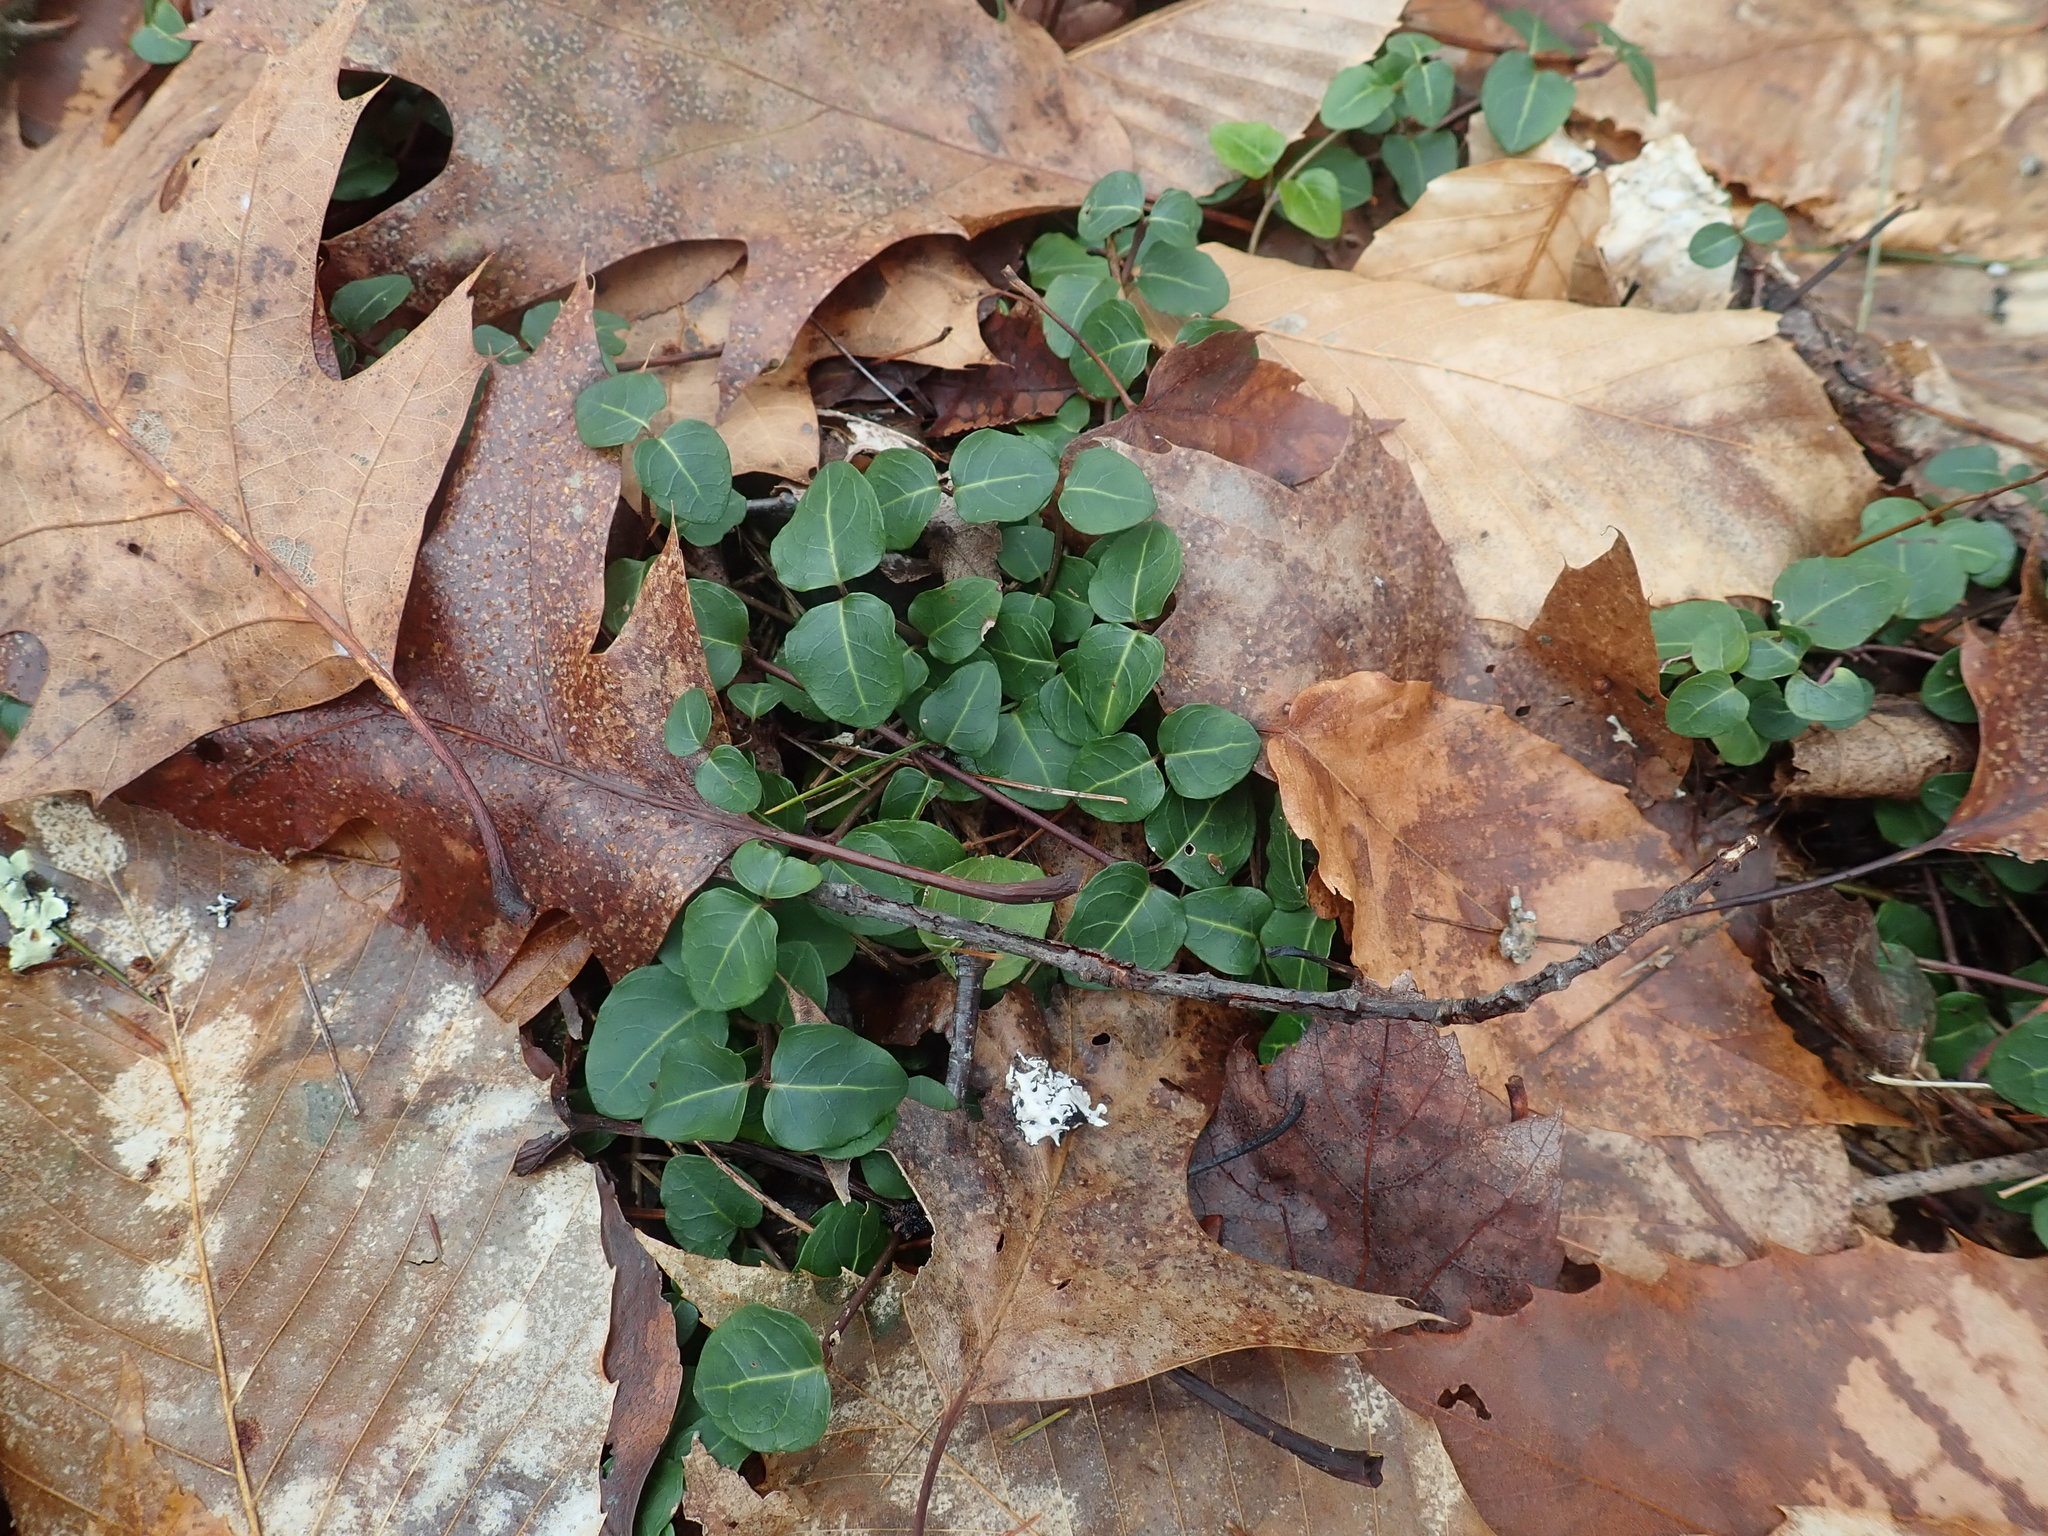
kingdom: Plantae
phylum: Tracheophyta
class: Magnoliopsida
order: Gentianales
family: Rubiaceae
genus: Mitchella
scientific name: Mitchella repens
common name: Partridge-berry
